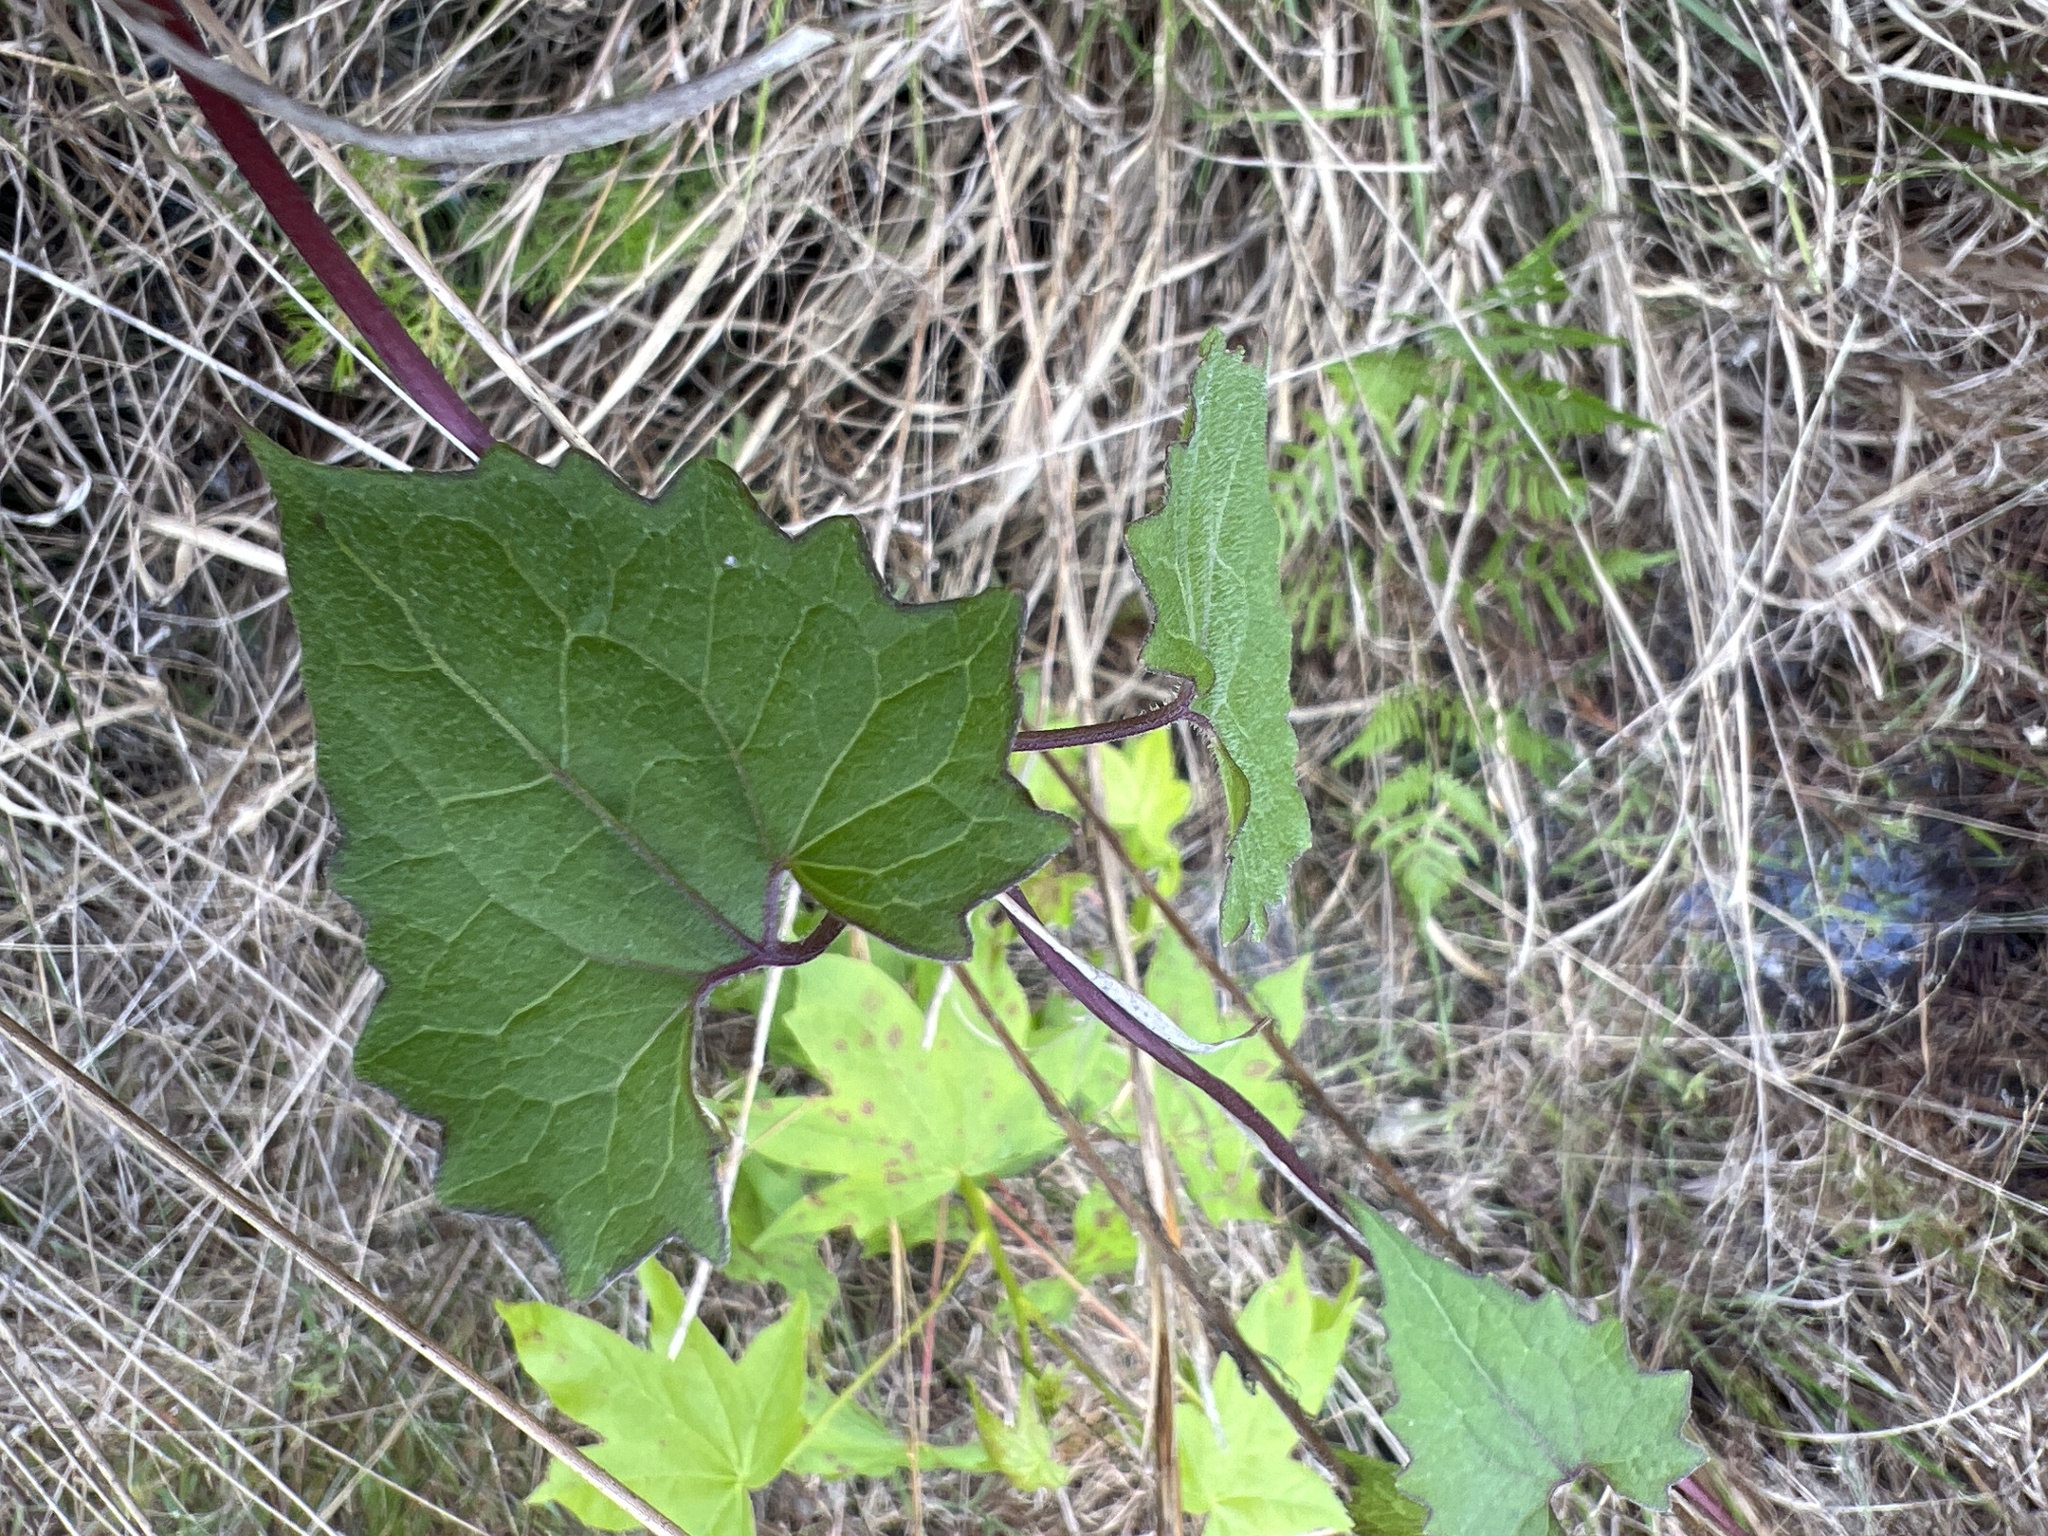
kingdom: Plantae
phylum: Tracheophyta
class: Magnoliopsida
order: Asterales
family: Asteraceae
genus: Mikania
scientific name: Mikania scandens
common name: Climbing hempvine
